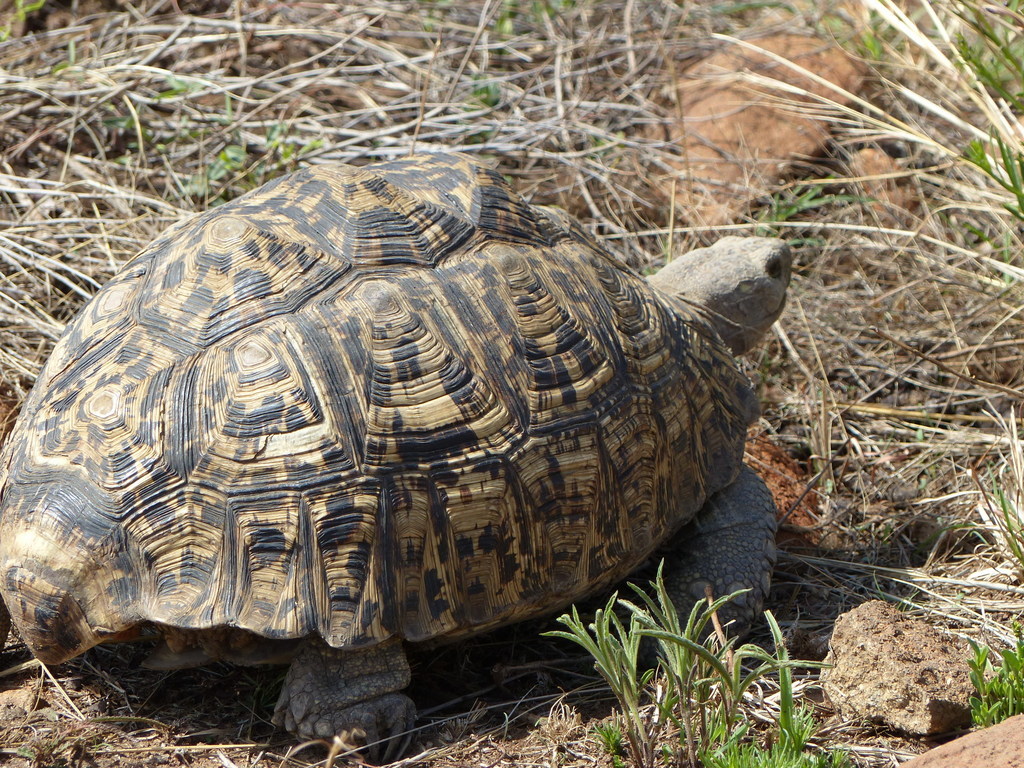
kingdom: Animalia
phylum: Chordata
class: Testudines
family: Testudinidae
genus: Stigmochelys
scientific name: Stigmochelys pardalis
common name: Leopard tortoise
